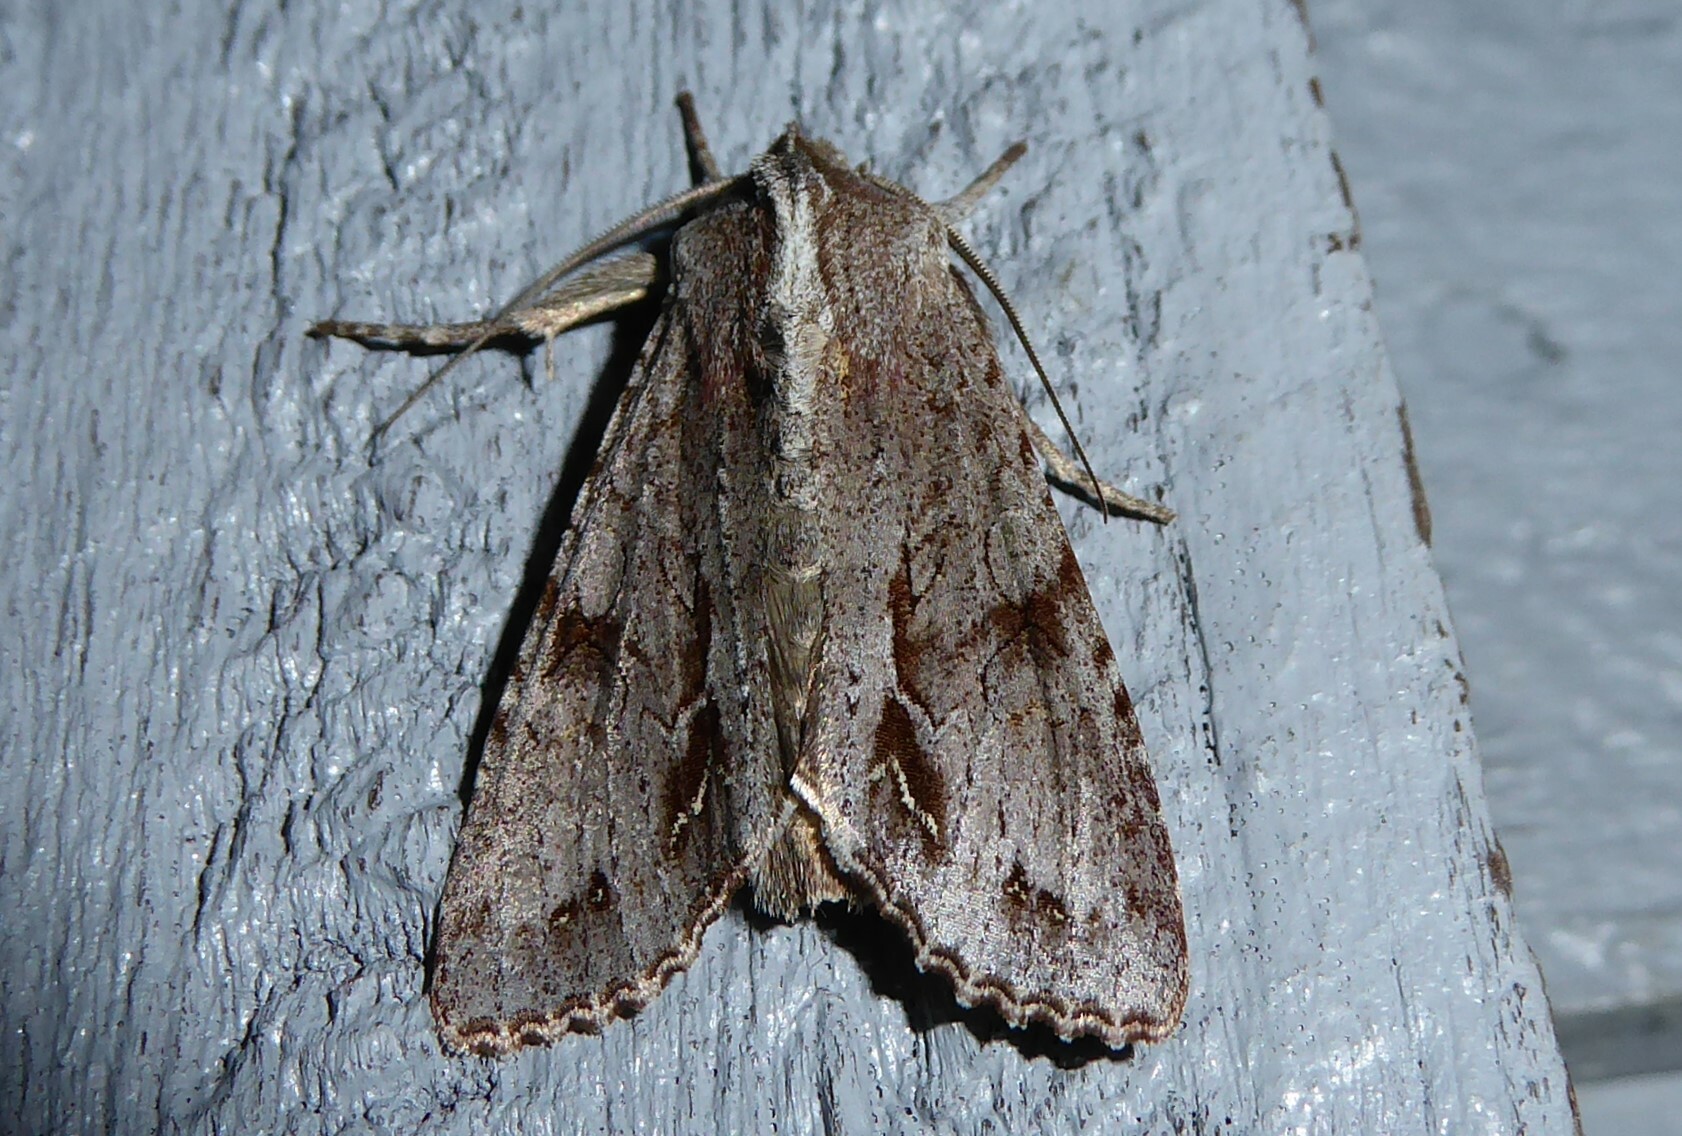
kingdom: Animalia
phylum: Arthropoda
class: Insecta
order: Lepidoptera
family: Noctuidae
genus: Ichneutica
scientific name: Ichneutica
